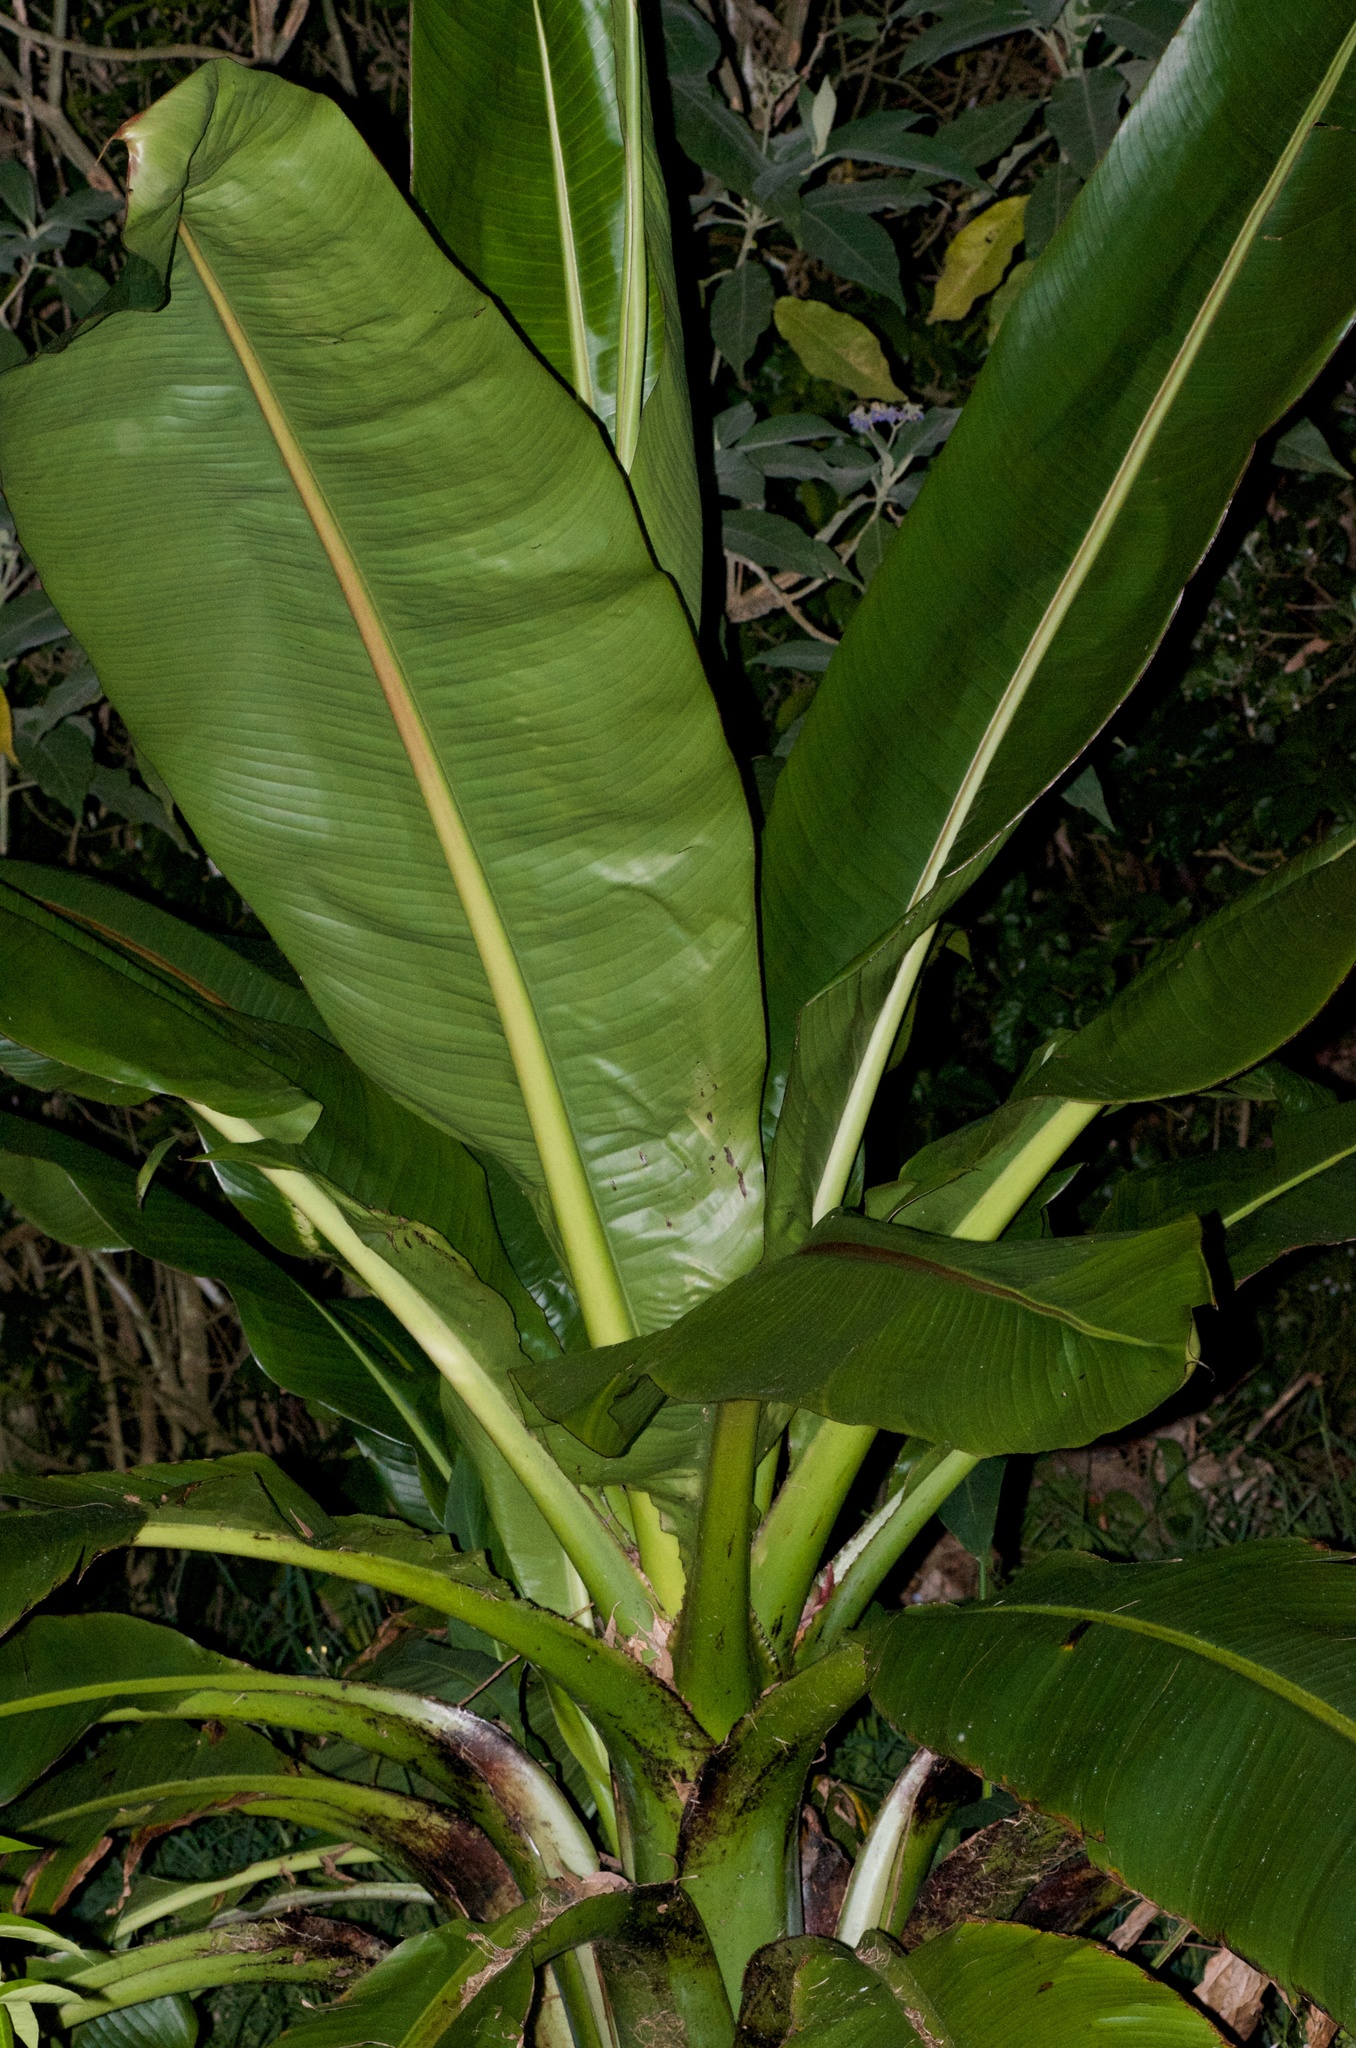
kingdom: Plantae
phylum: Tracheophyta
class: Liliopsida
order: Zingiberales
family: Musaceae
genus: Ensete
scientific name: Ensete ventricosum
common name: Abyssinian banana
